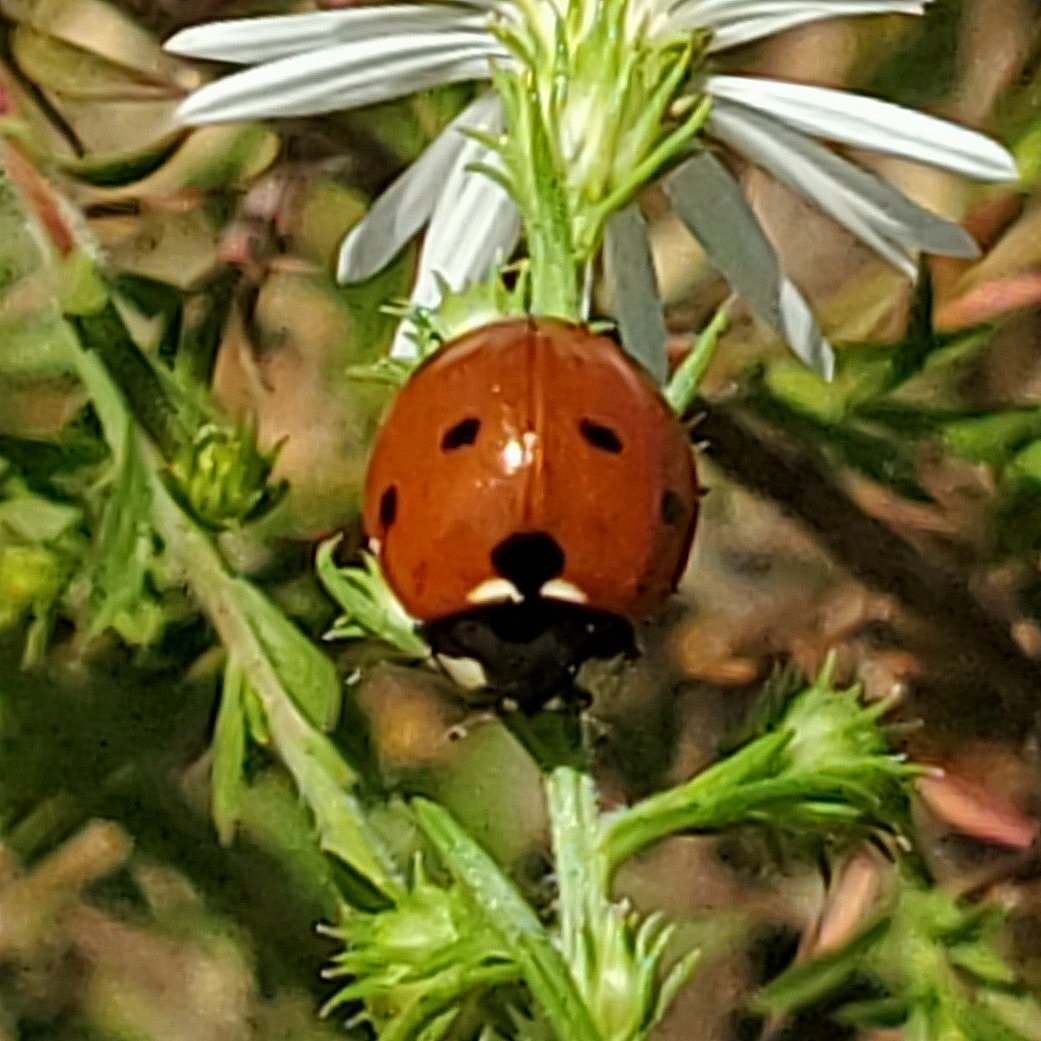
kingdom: Animalia
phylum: Arthropoda
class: Insecta
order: Coleoptera
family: Coccinellidae
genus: Coccinella
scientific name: Coccinella septempunctata
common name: Sevenspotted lady beetle
